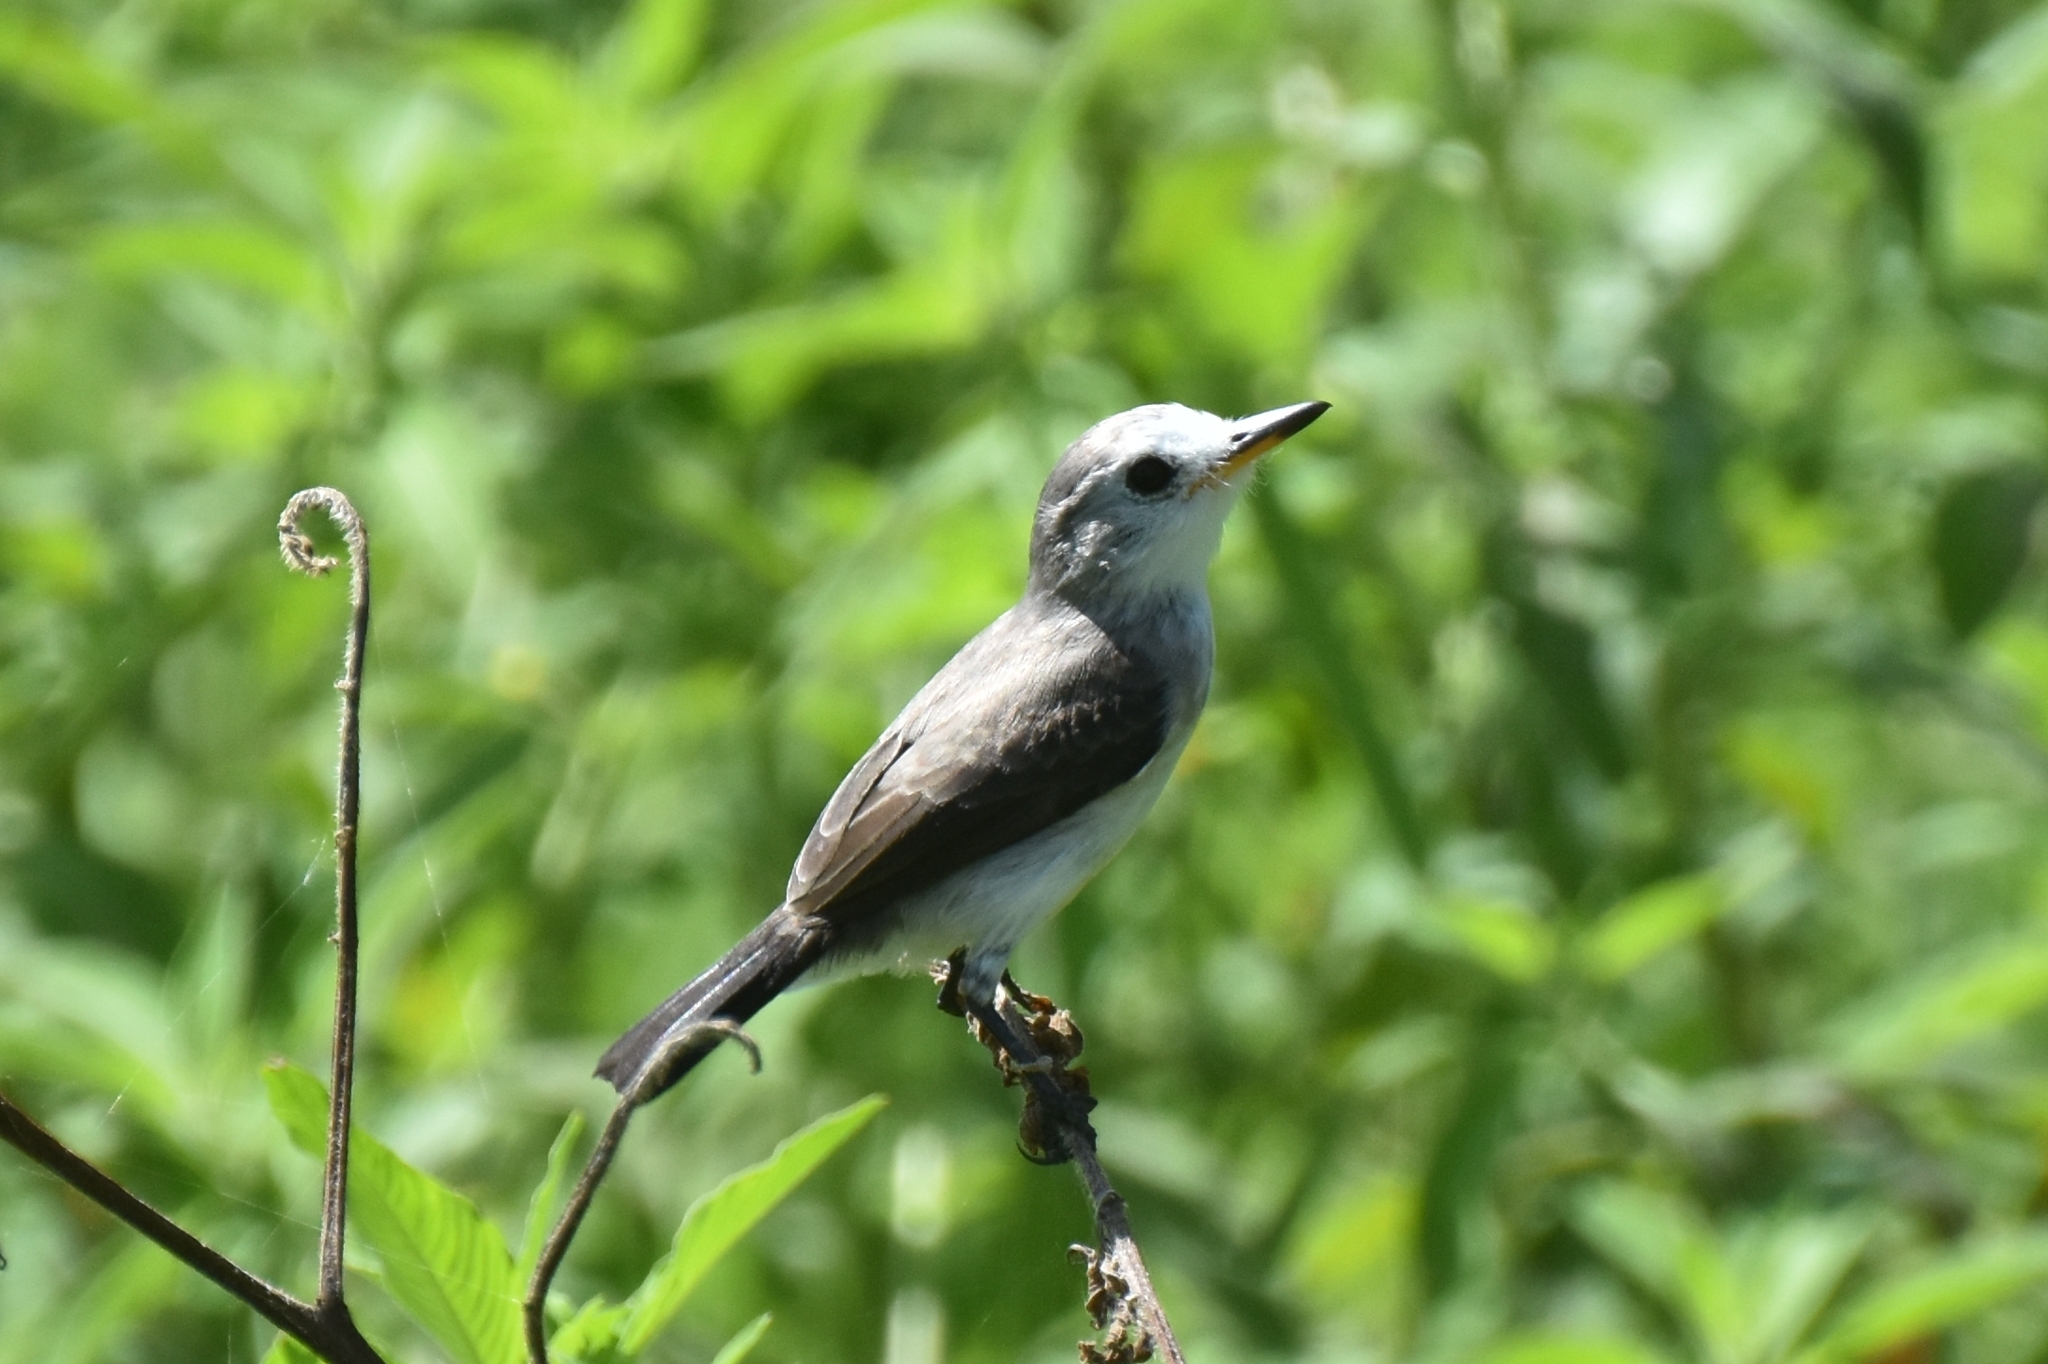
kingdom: Animalia
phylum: Chordata
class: Aves
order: Passeriformes
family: Tyrannidae
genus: Arundinicola
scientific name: Arundinicola leucocephala
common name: White-headed marsh tyrant
